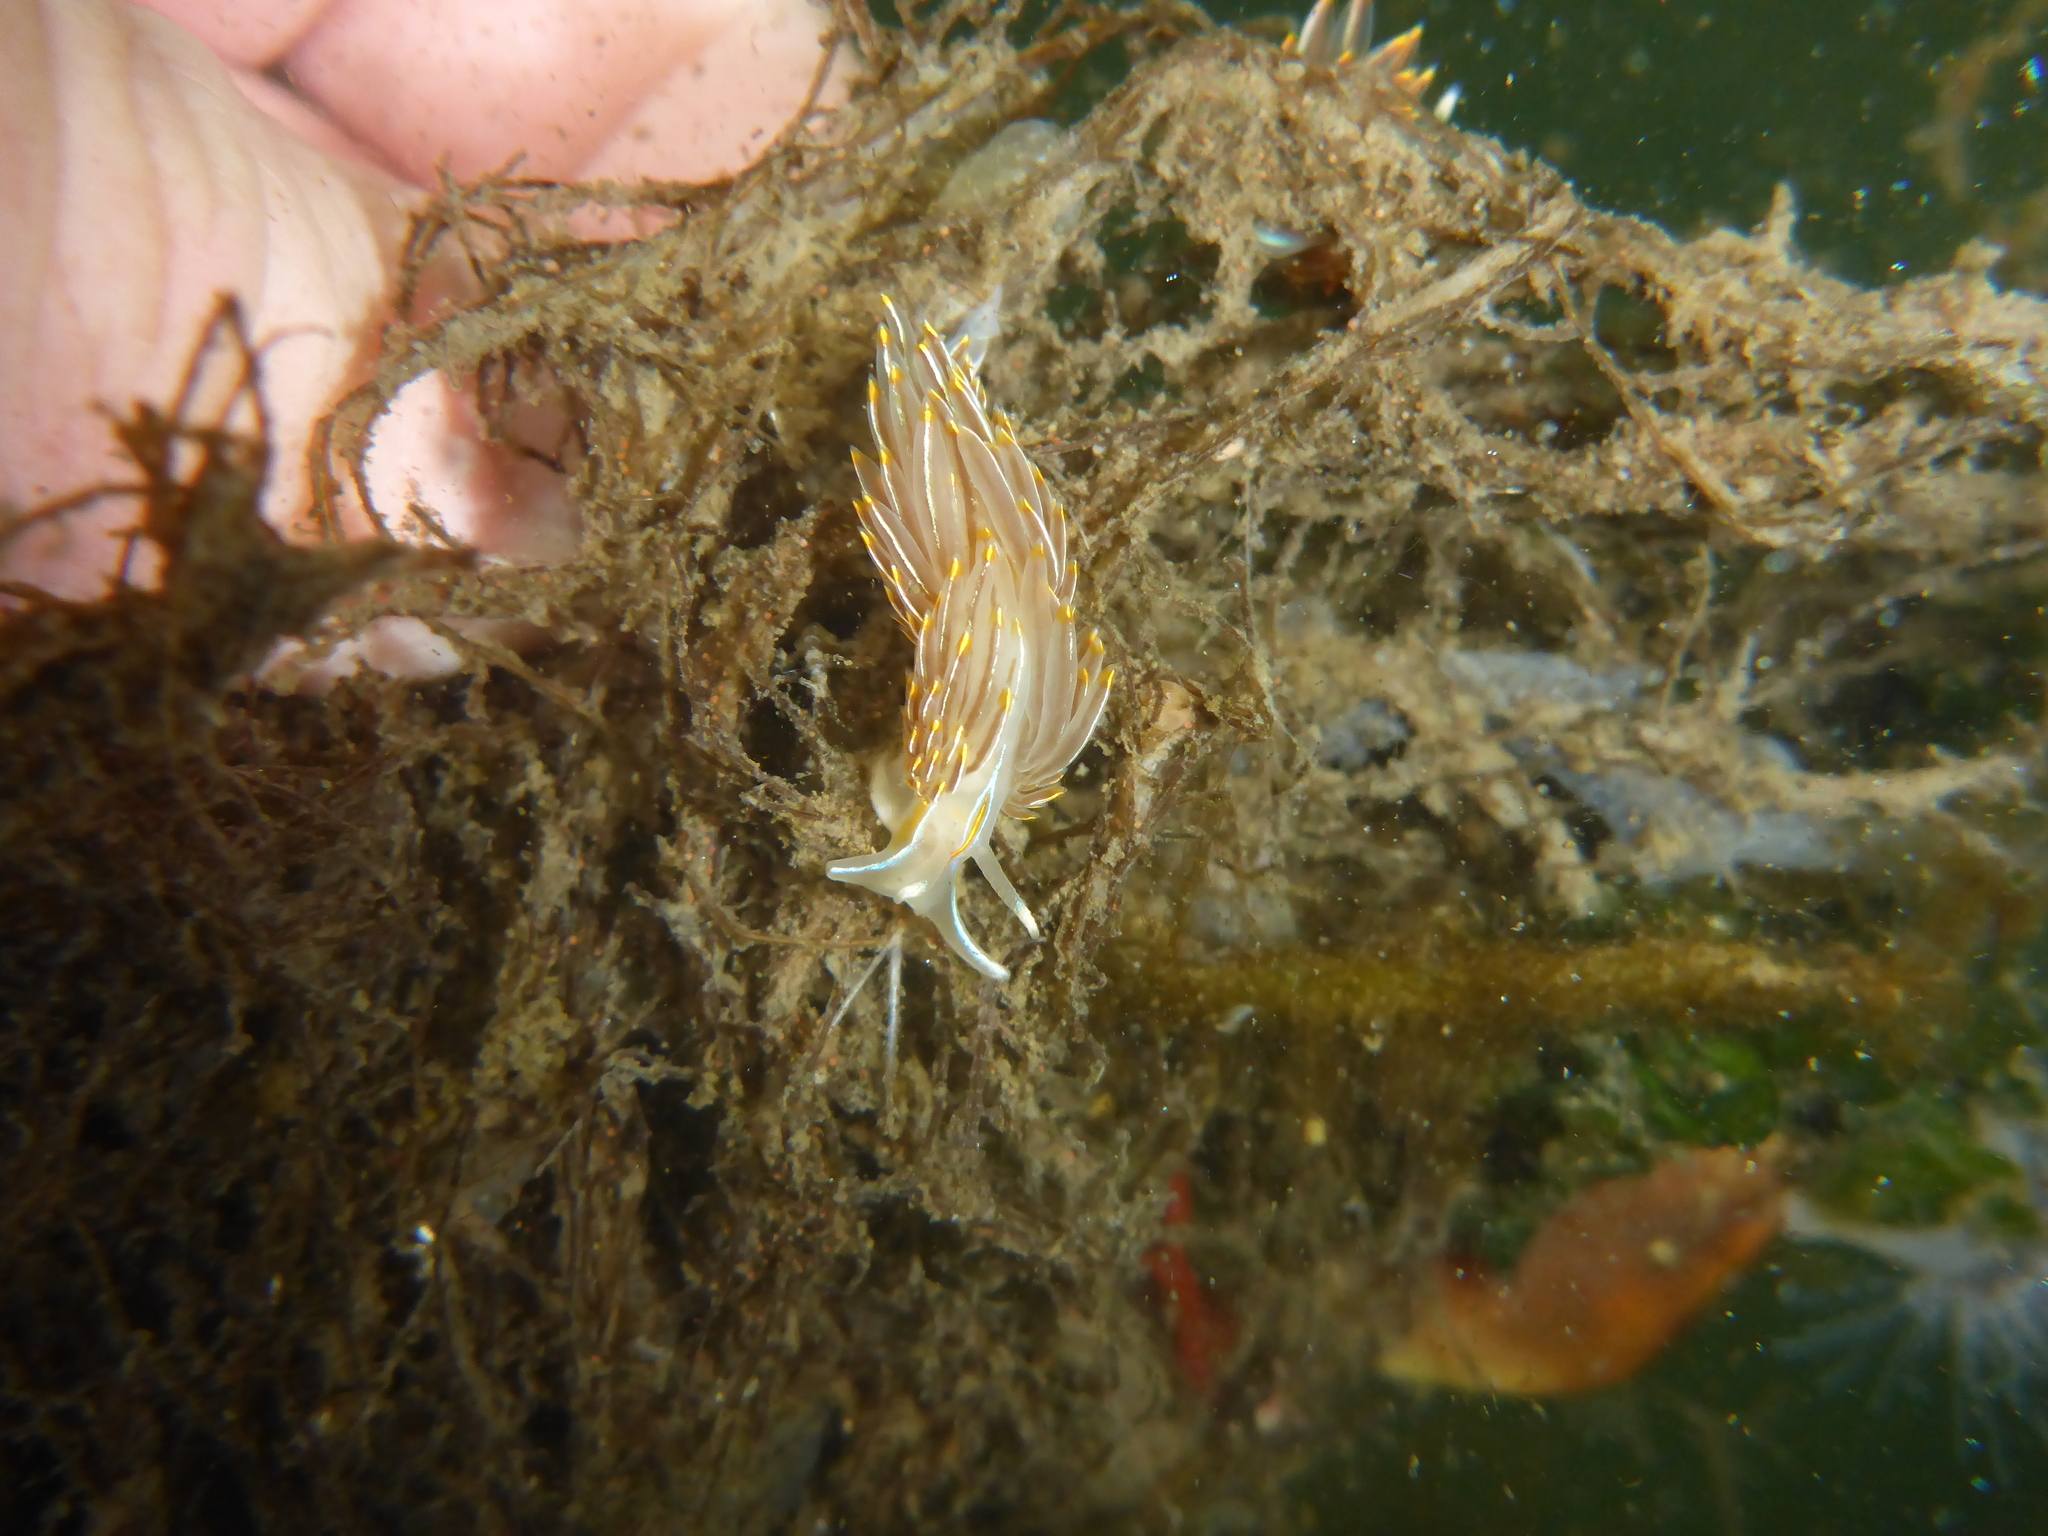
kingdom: Animalia
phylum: Mollusca
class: Gastropoda
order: Nudibranchia
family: Myrrhinidae
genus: Hermissenda
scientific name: Hermissenda crassicornis
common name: Hermissenda
